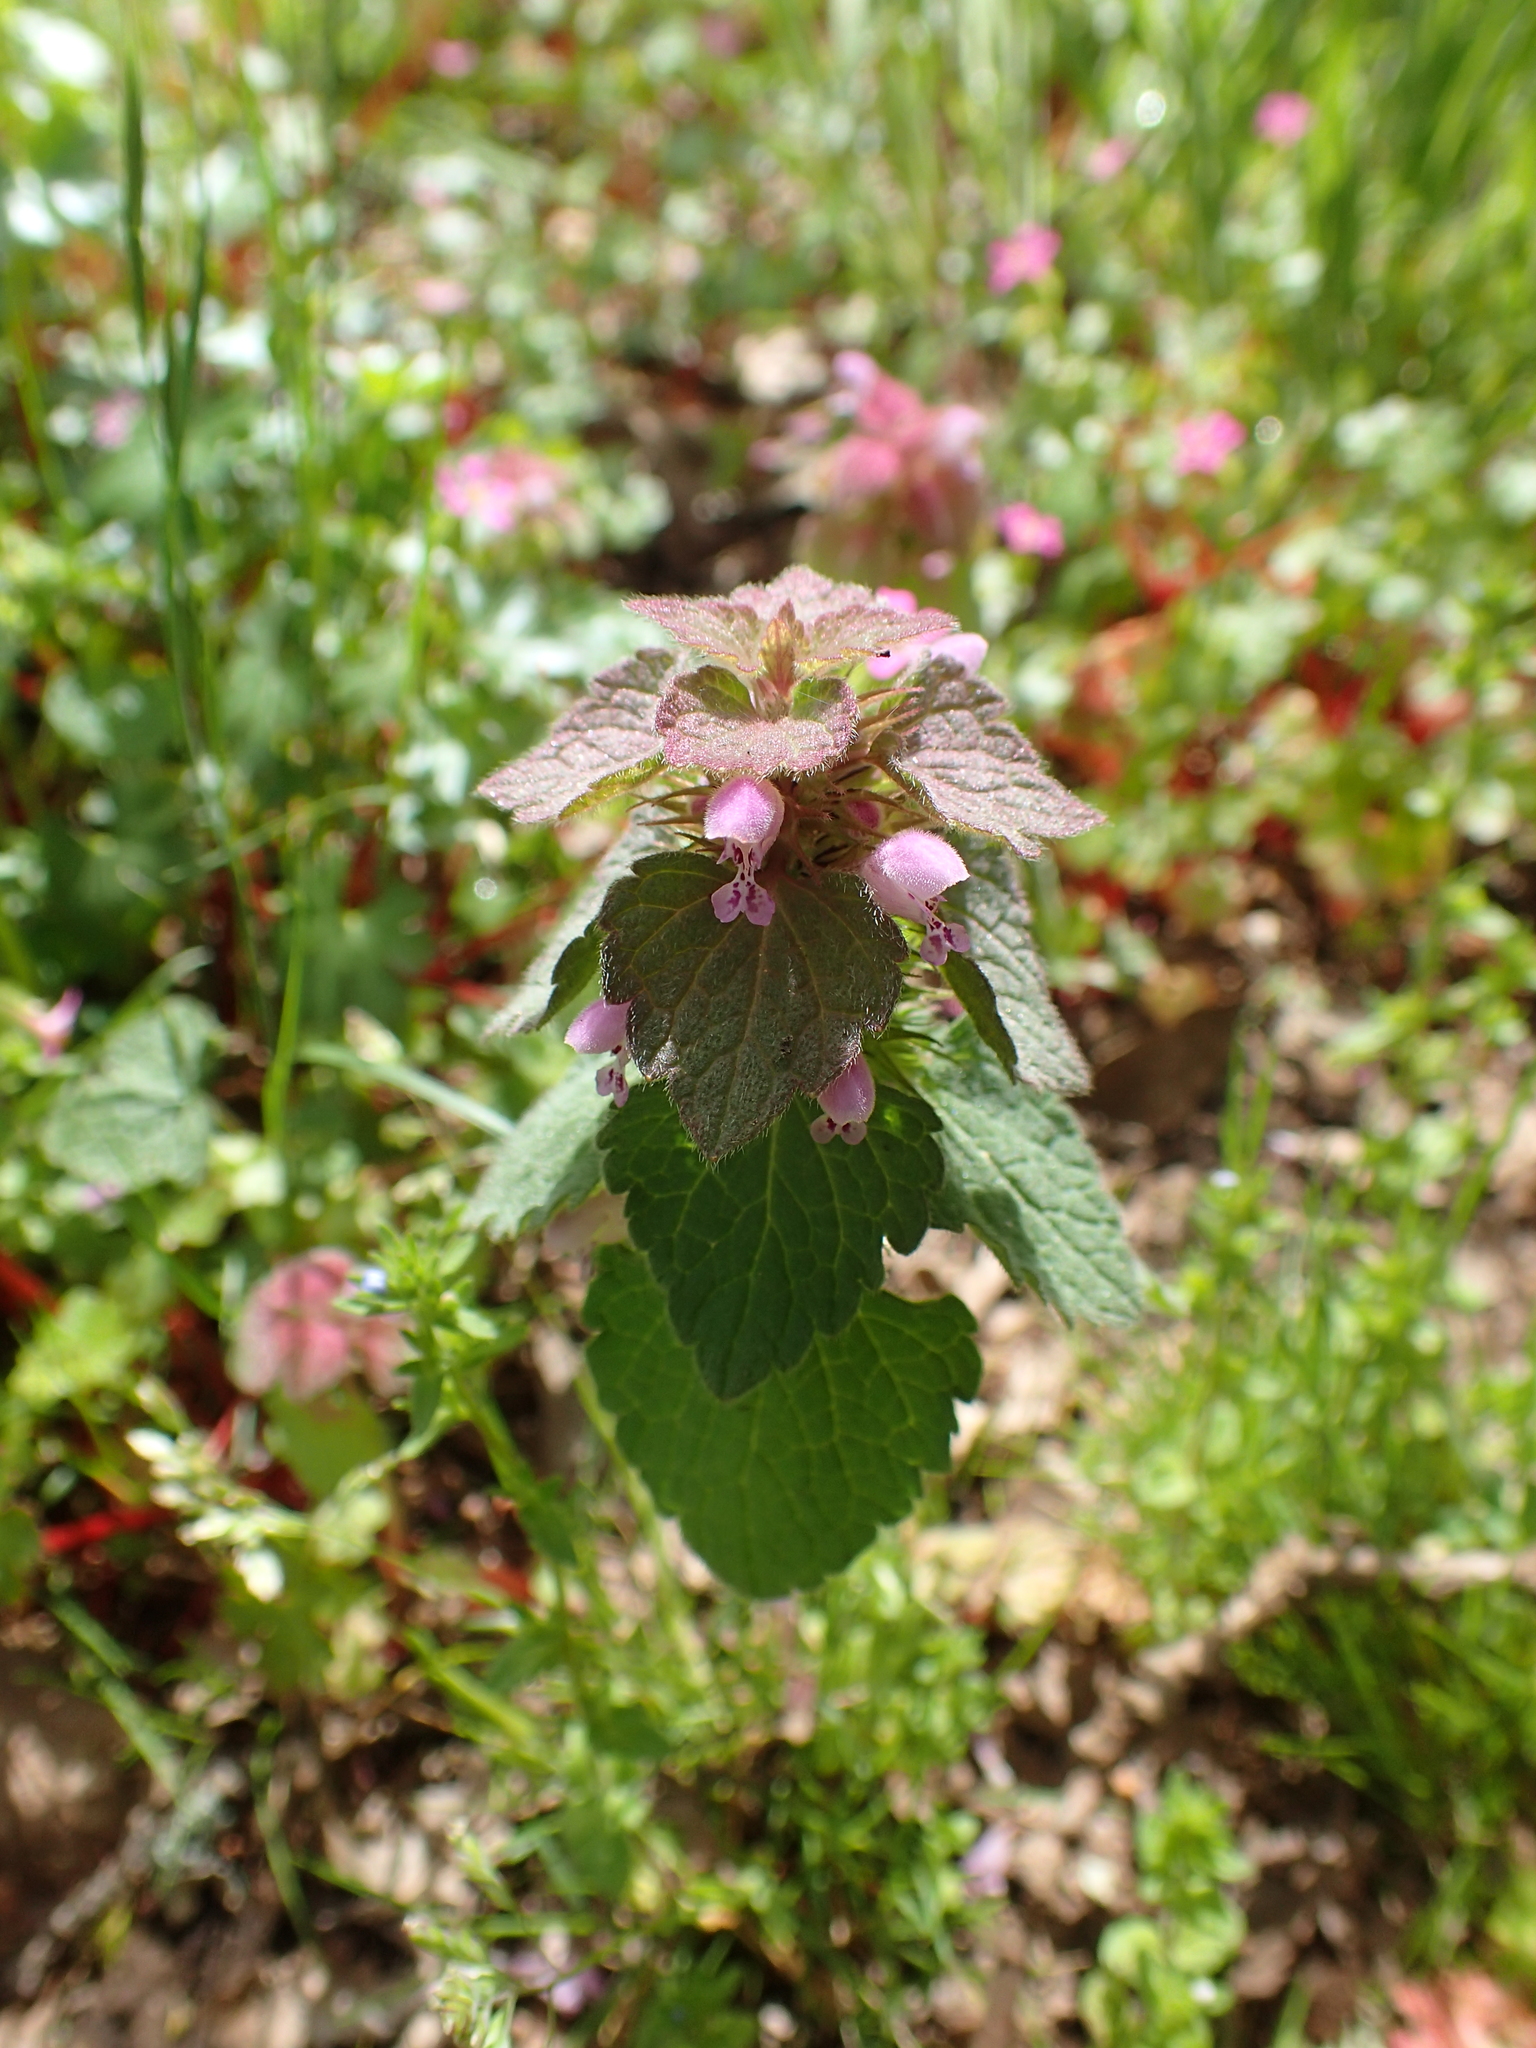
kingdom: Plantae
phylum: Tracheophyta
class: Magnoliopsida
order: Lamiales
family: Lamiaceae
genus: Lamium
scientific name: Lamium purpureum
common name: Red dead-nettle
